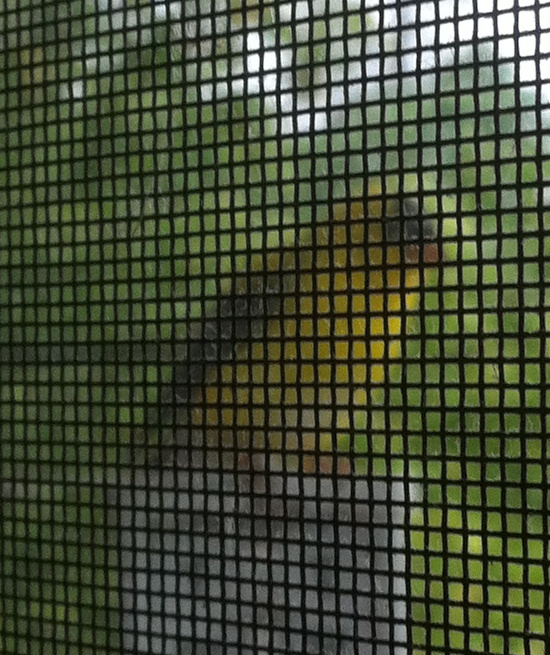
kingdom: Animalia
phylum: Chordata
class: Aves
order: Passeriformes
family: Fringillidae
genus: Spinus
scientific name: Spinus tristis
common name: American goldfinch
